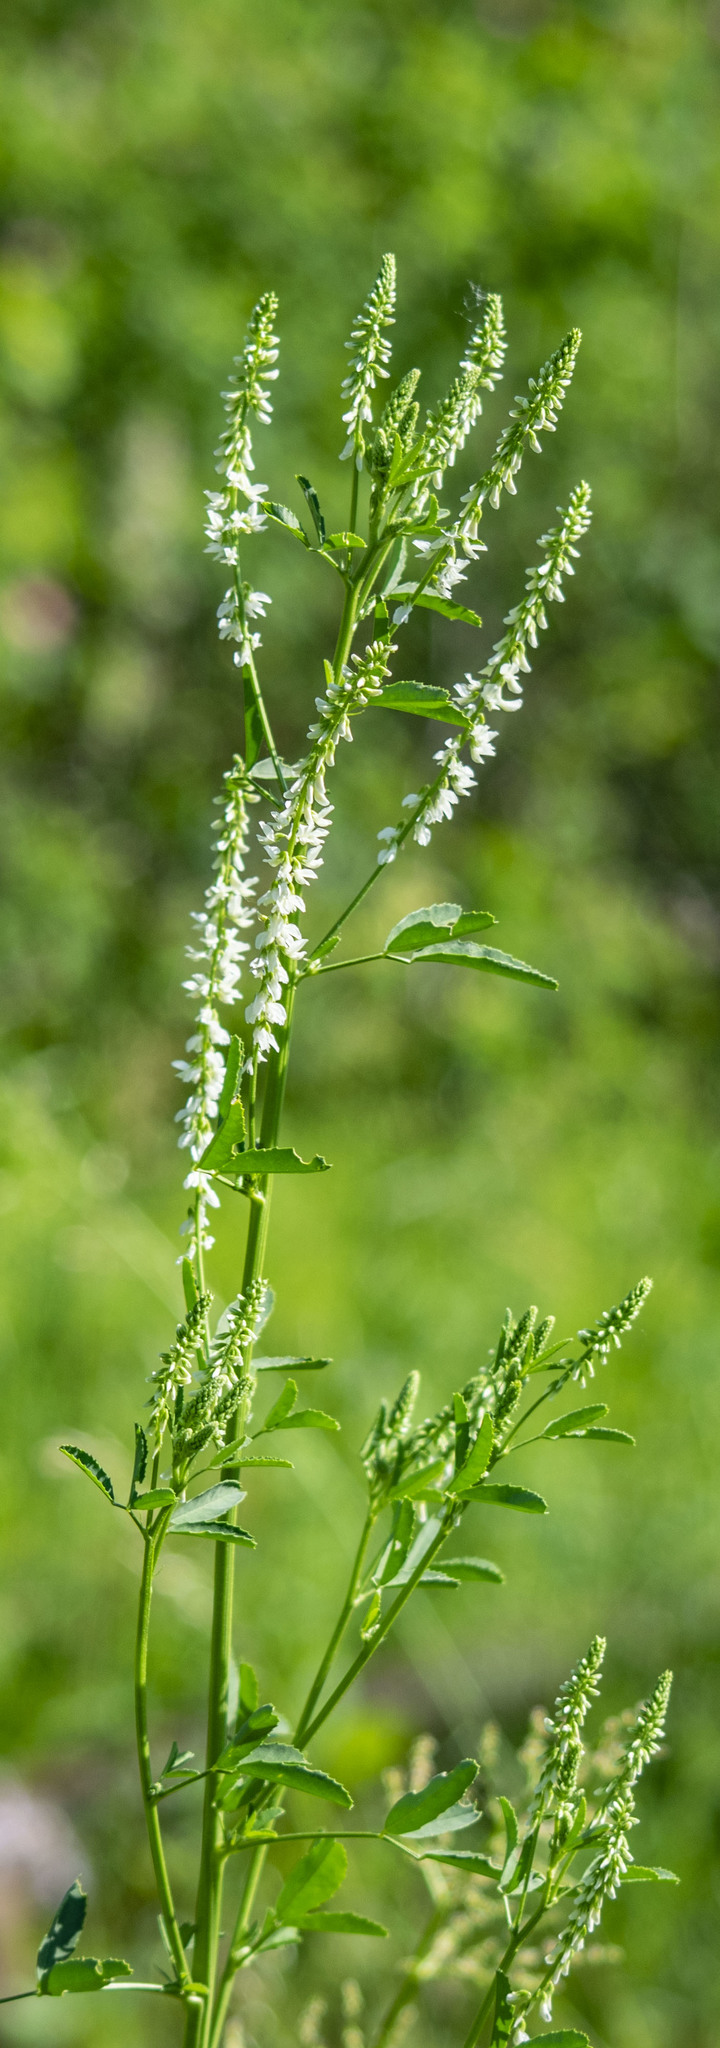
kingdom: Plantae
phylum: Tracheophyta
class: Magnoliopsida
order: Fabales
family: Fabaceae
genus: Melilotus
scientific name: Melilotus albus
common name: White melilot
